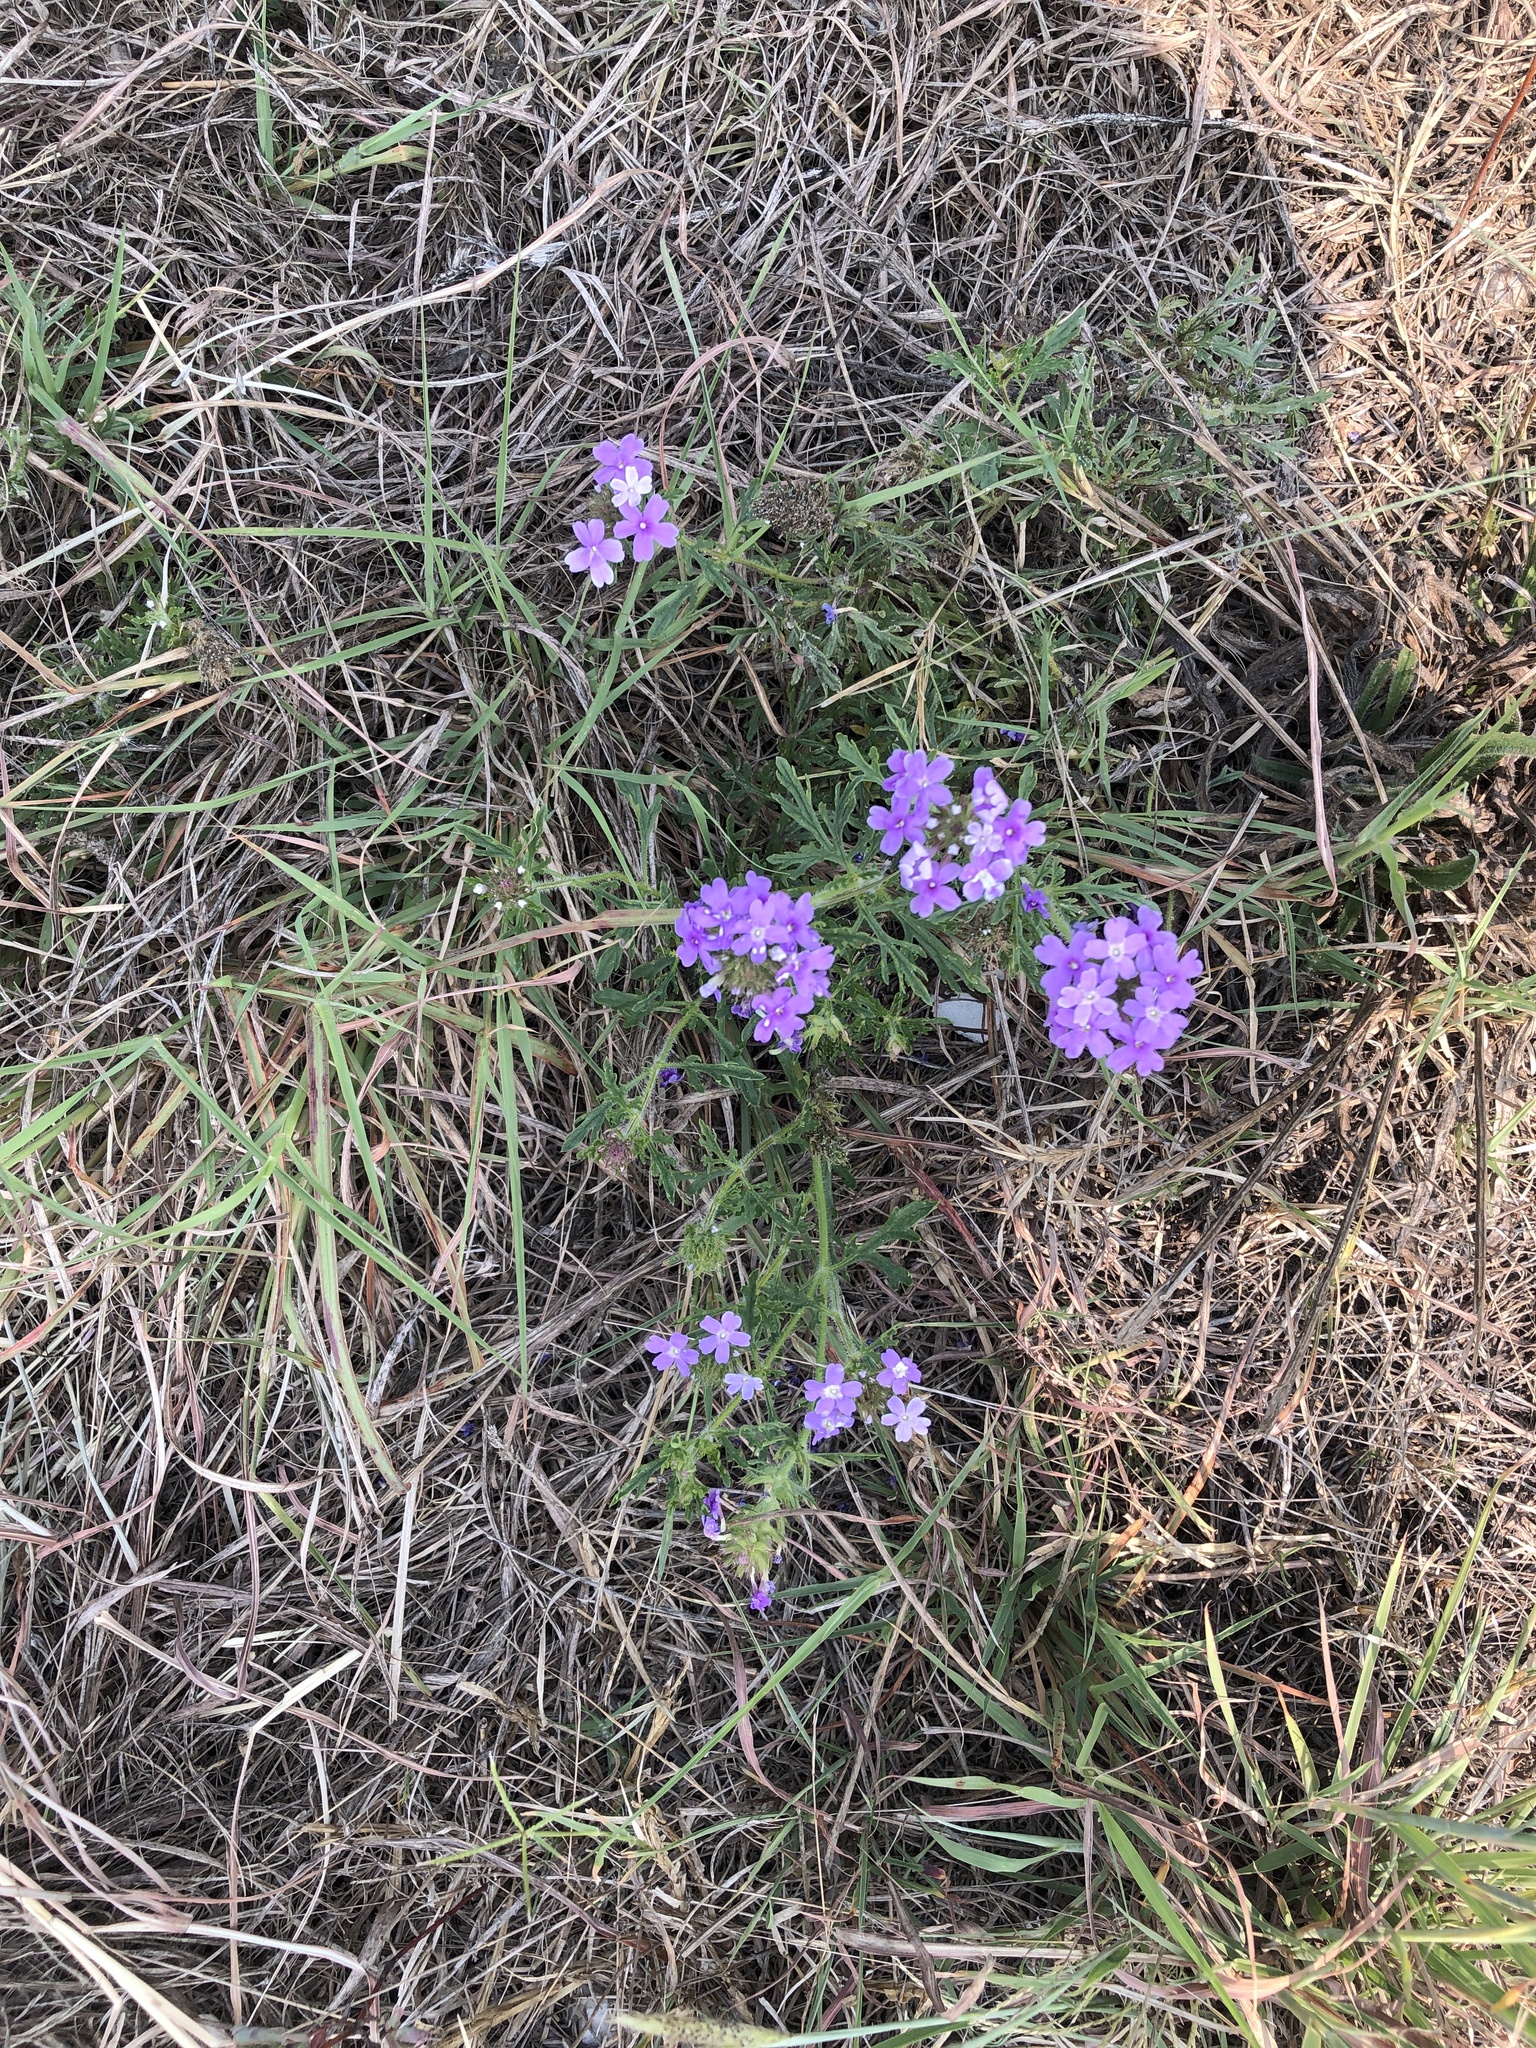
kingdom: Plantae
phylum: Tracheophyta
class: Magnoliopsida
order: Lamiales
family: Verbenaceae
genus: Verbena
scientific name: Verbena bipinnatifida
